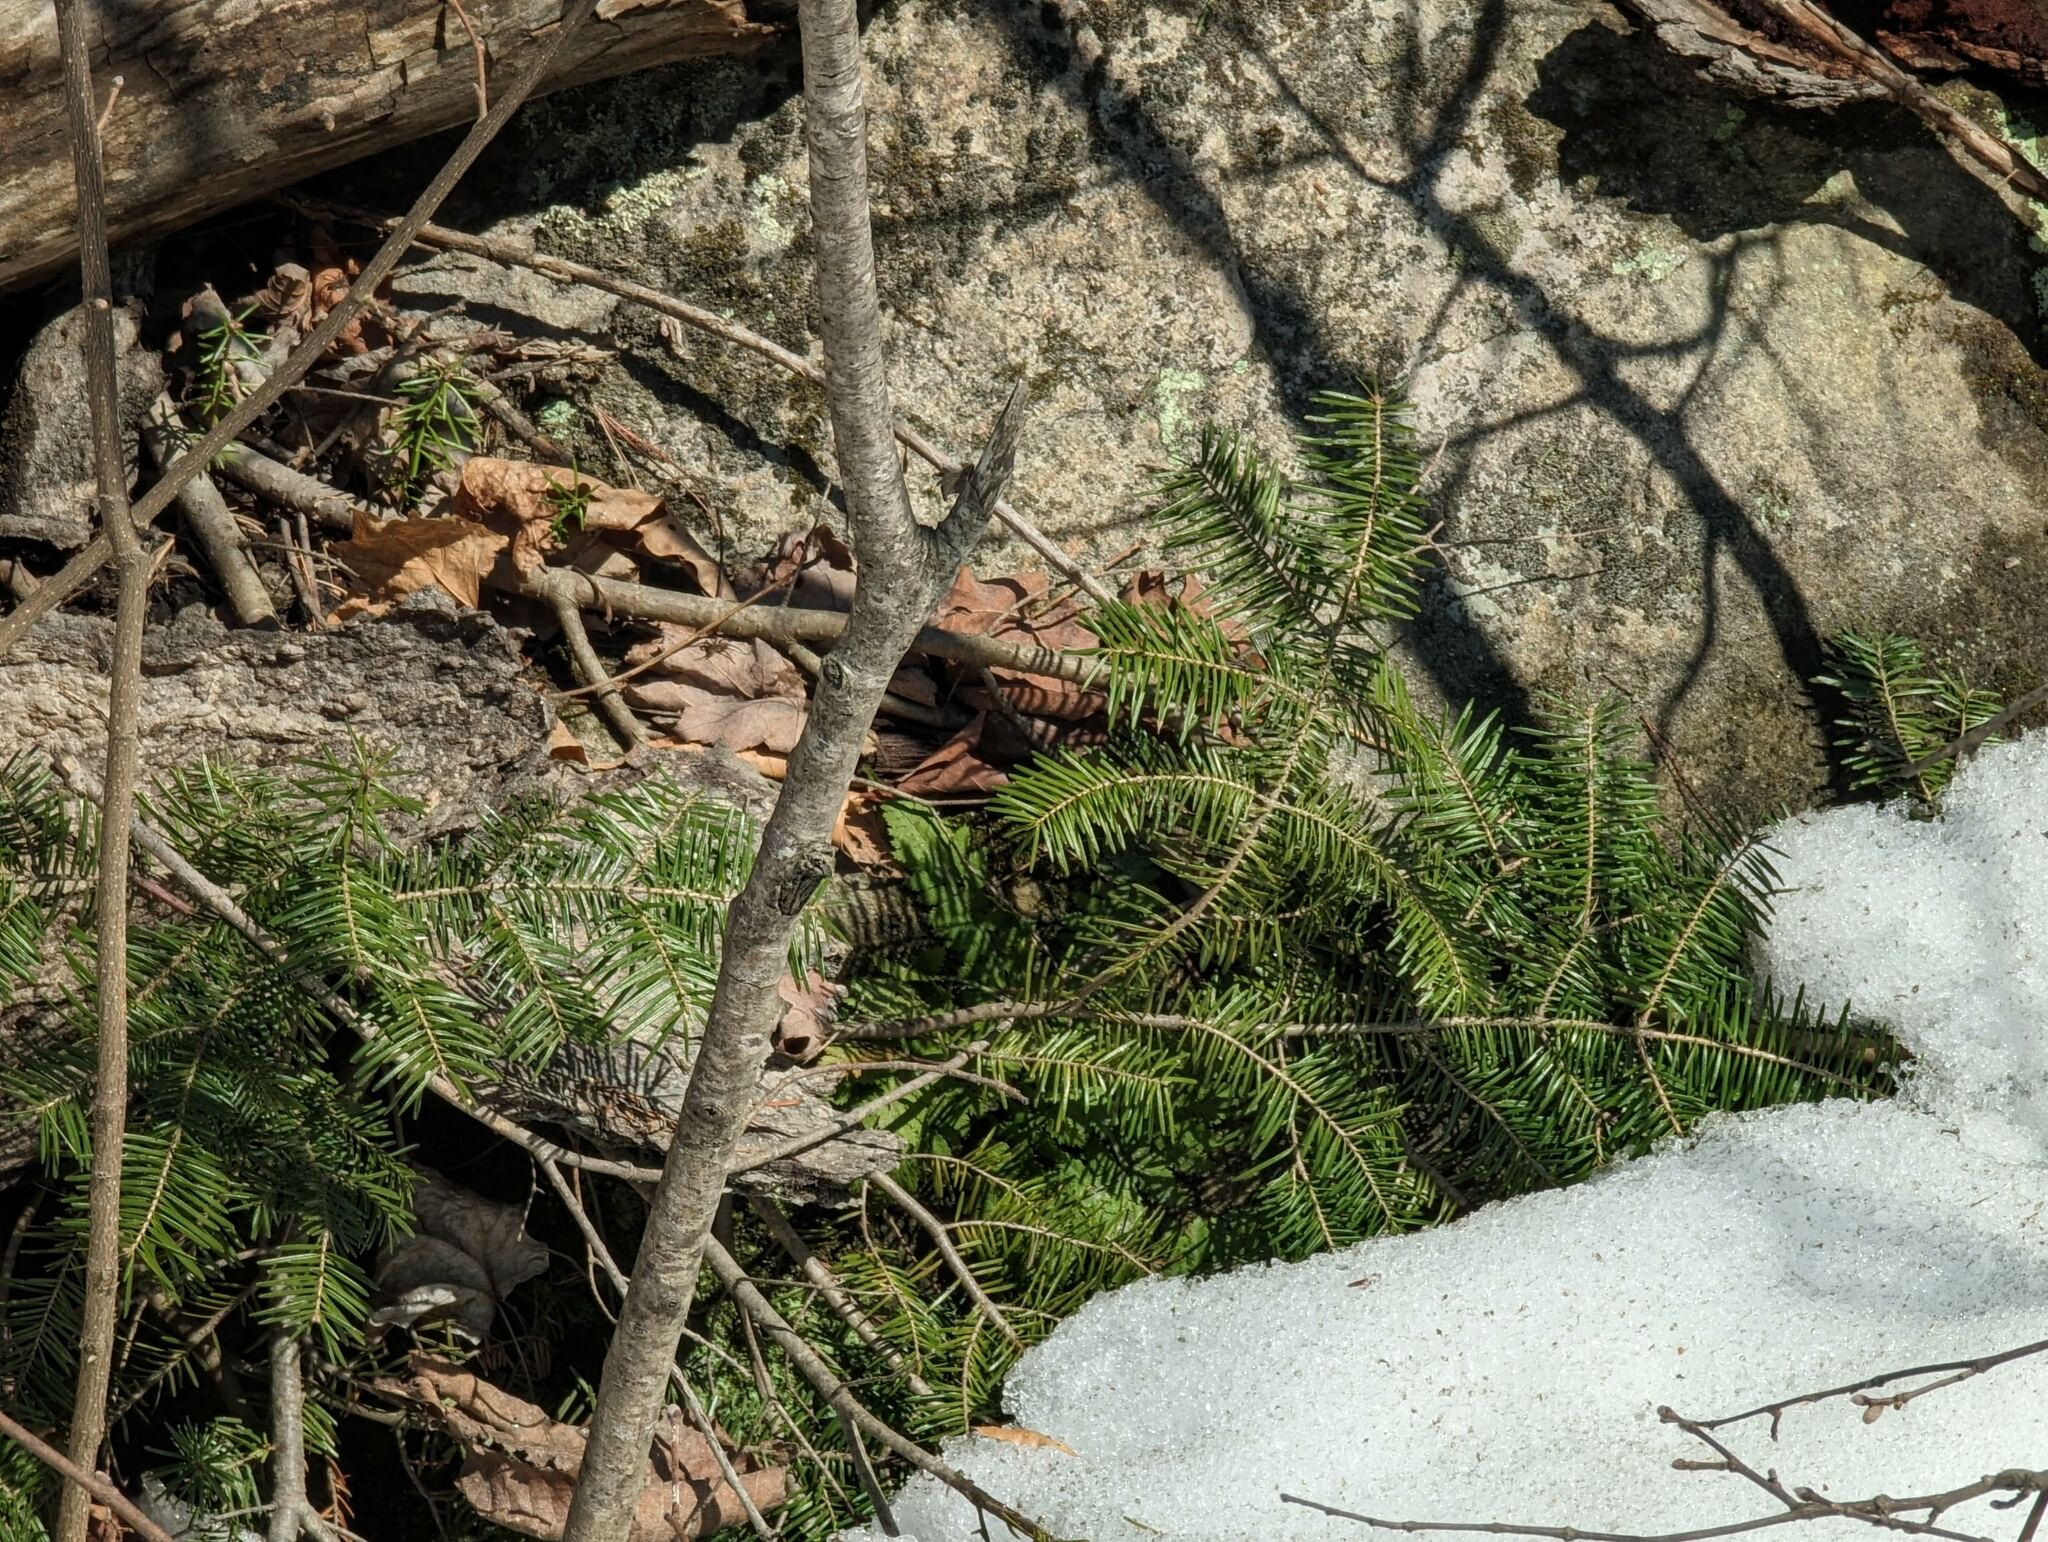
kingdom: Plantae
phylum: Tracheophyta
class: Pinopsida
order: Pinales
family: Pinaceae
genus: Abies
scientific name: Abies balsamea
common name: Balsam fir
